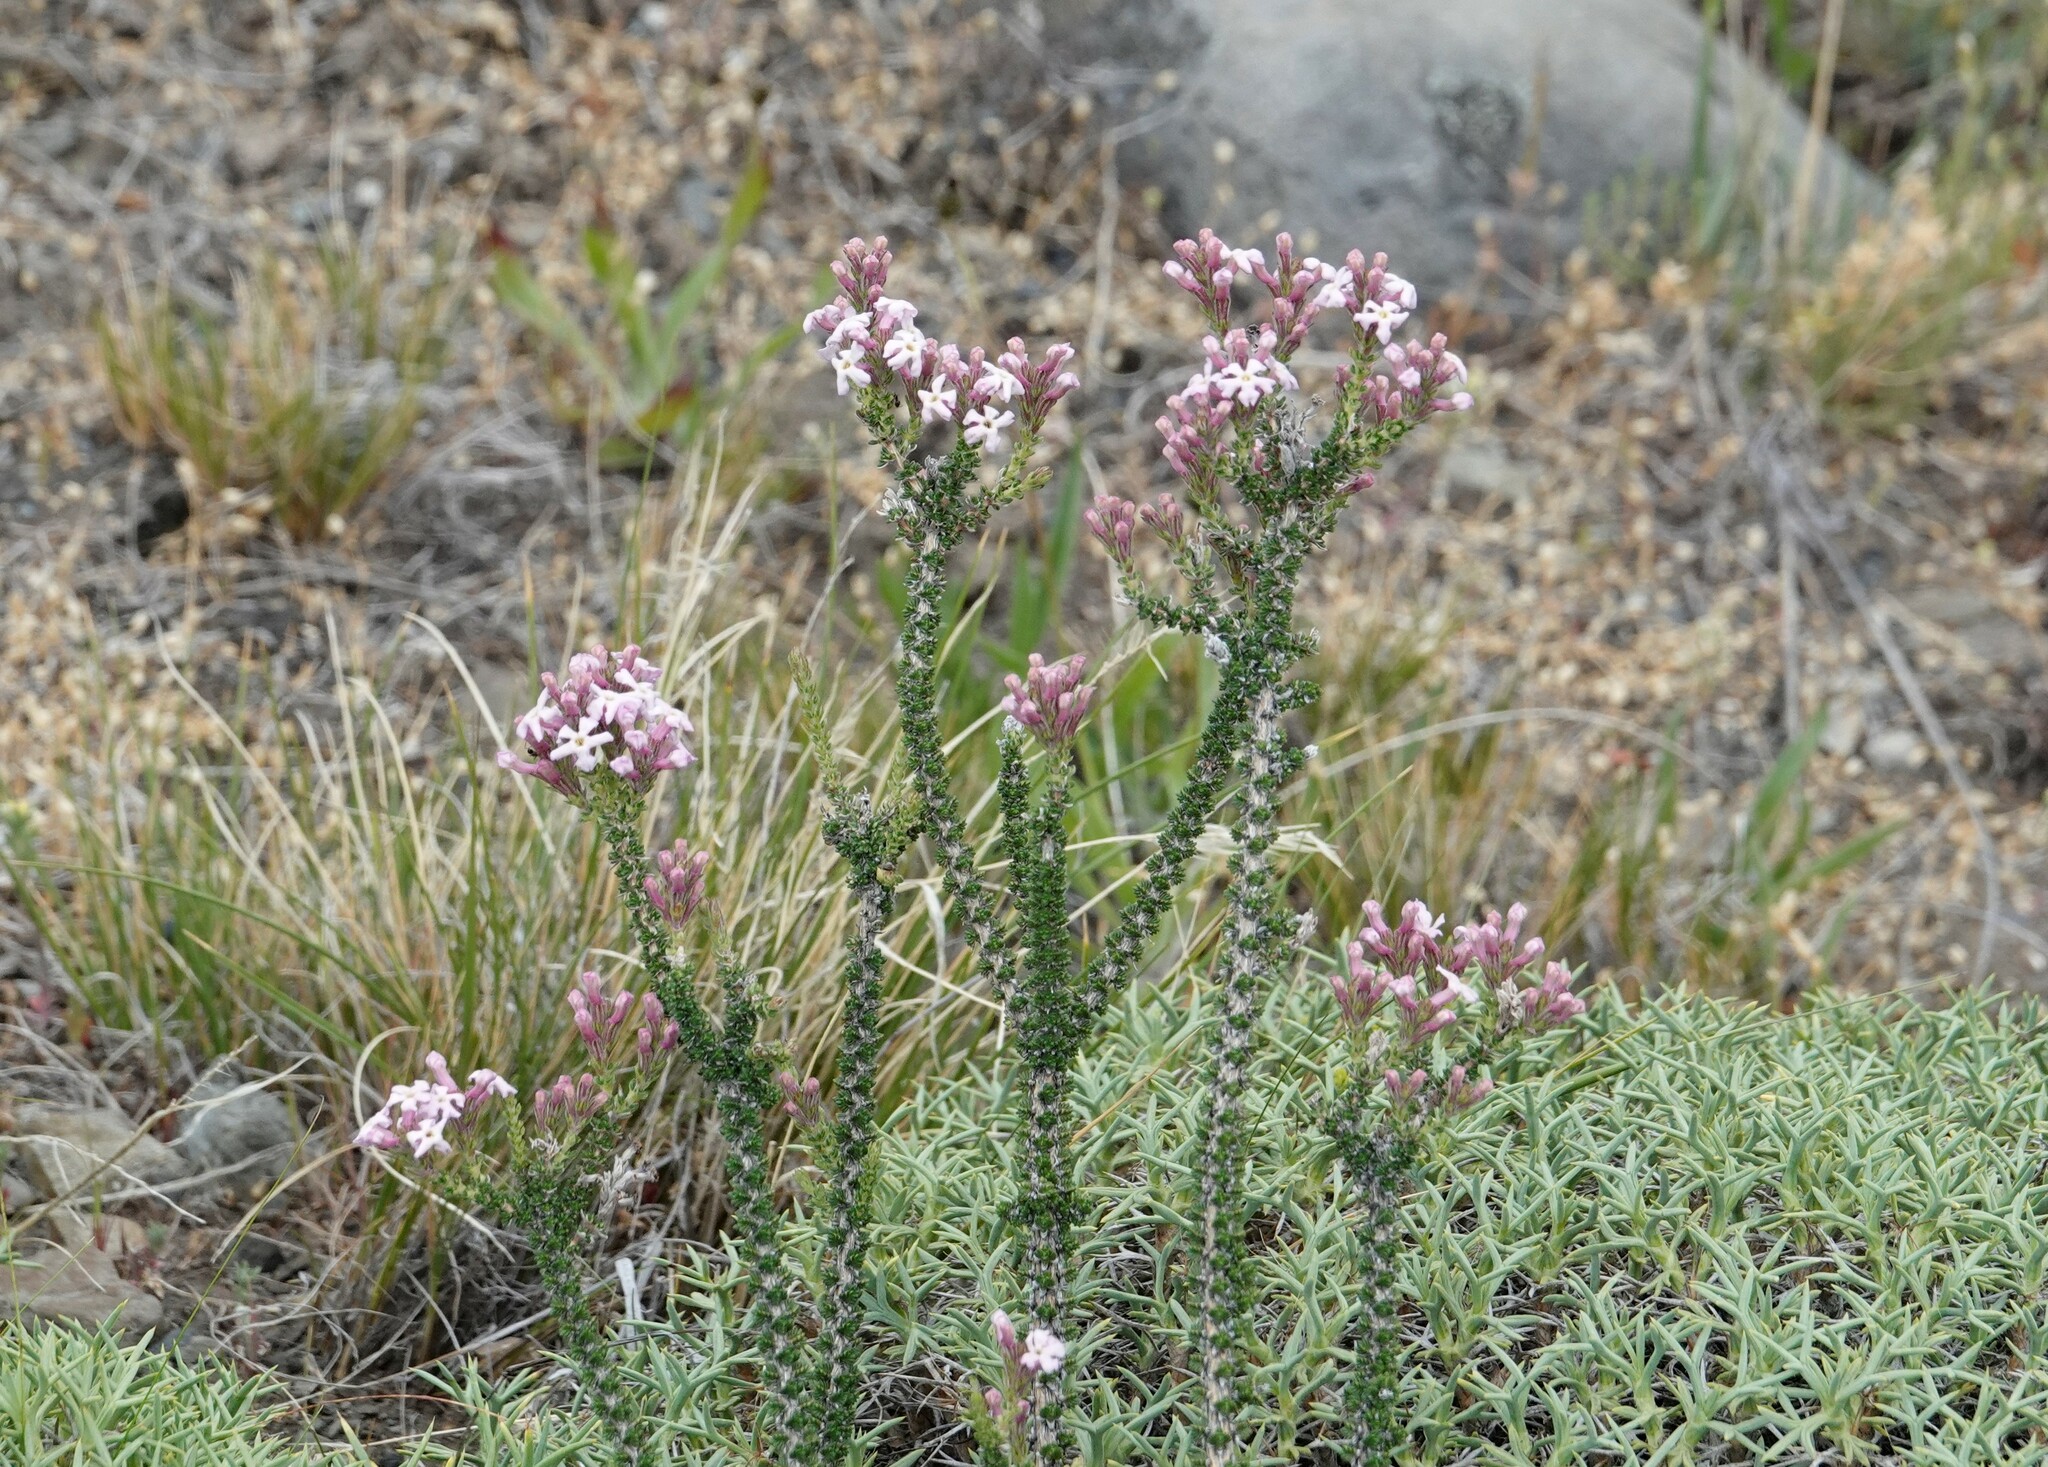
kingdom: Plantae
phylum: Tracheophyta
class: Magnoliopsida
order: Lamiales
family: Verbenaceae
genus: Mulguraea
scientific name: Mulguraea tridens
